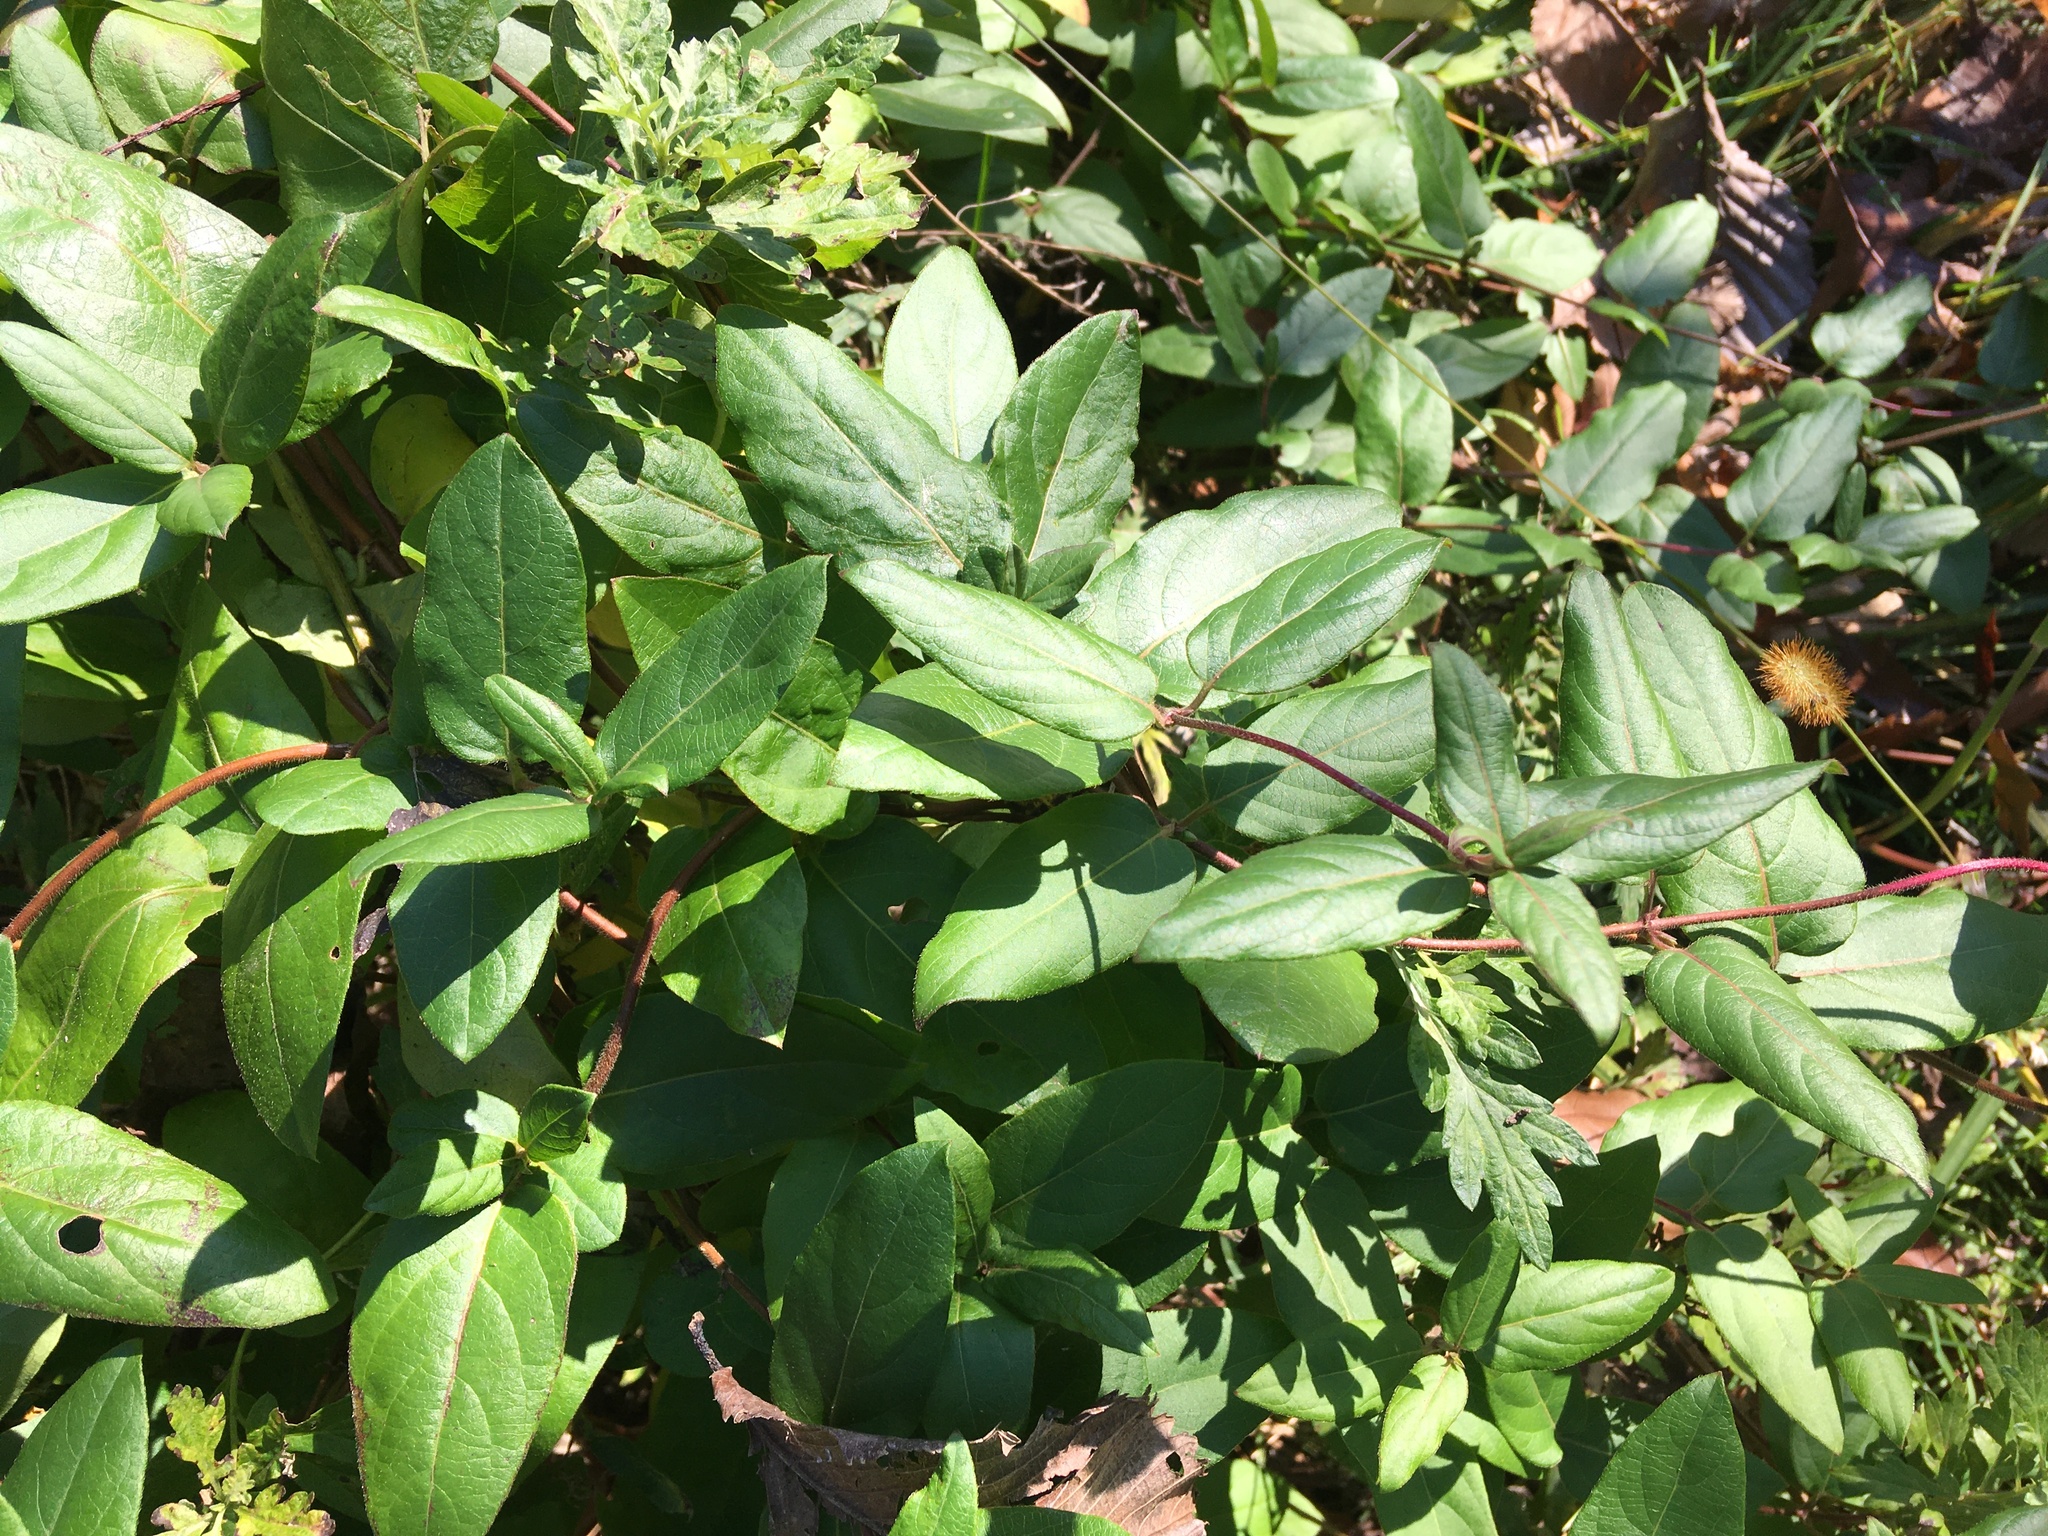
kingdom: Plantae
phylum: Tracheophyta
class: Magnoliopsida
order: Dipsacales
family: Caprifoliaceae
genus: Lonicera
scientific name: Lonicera japonica
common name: Japanese honeysuckle
